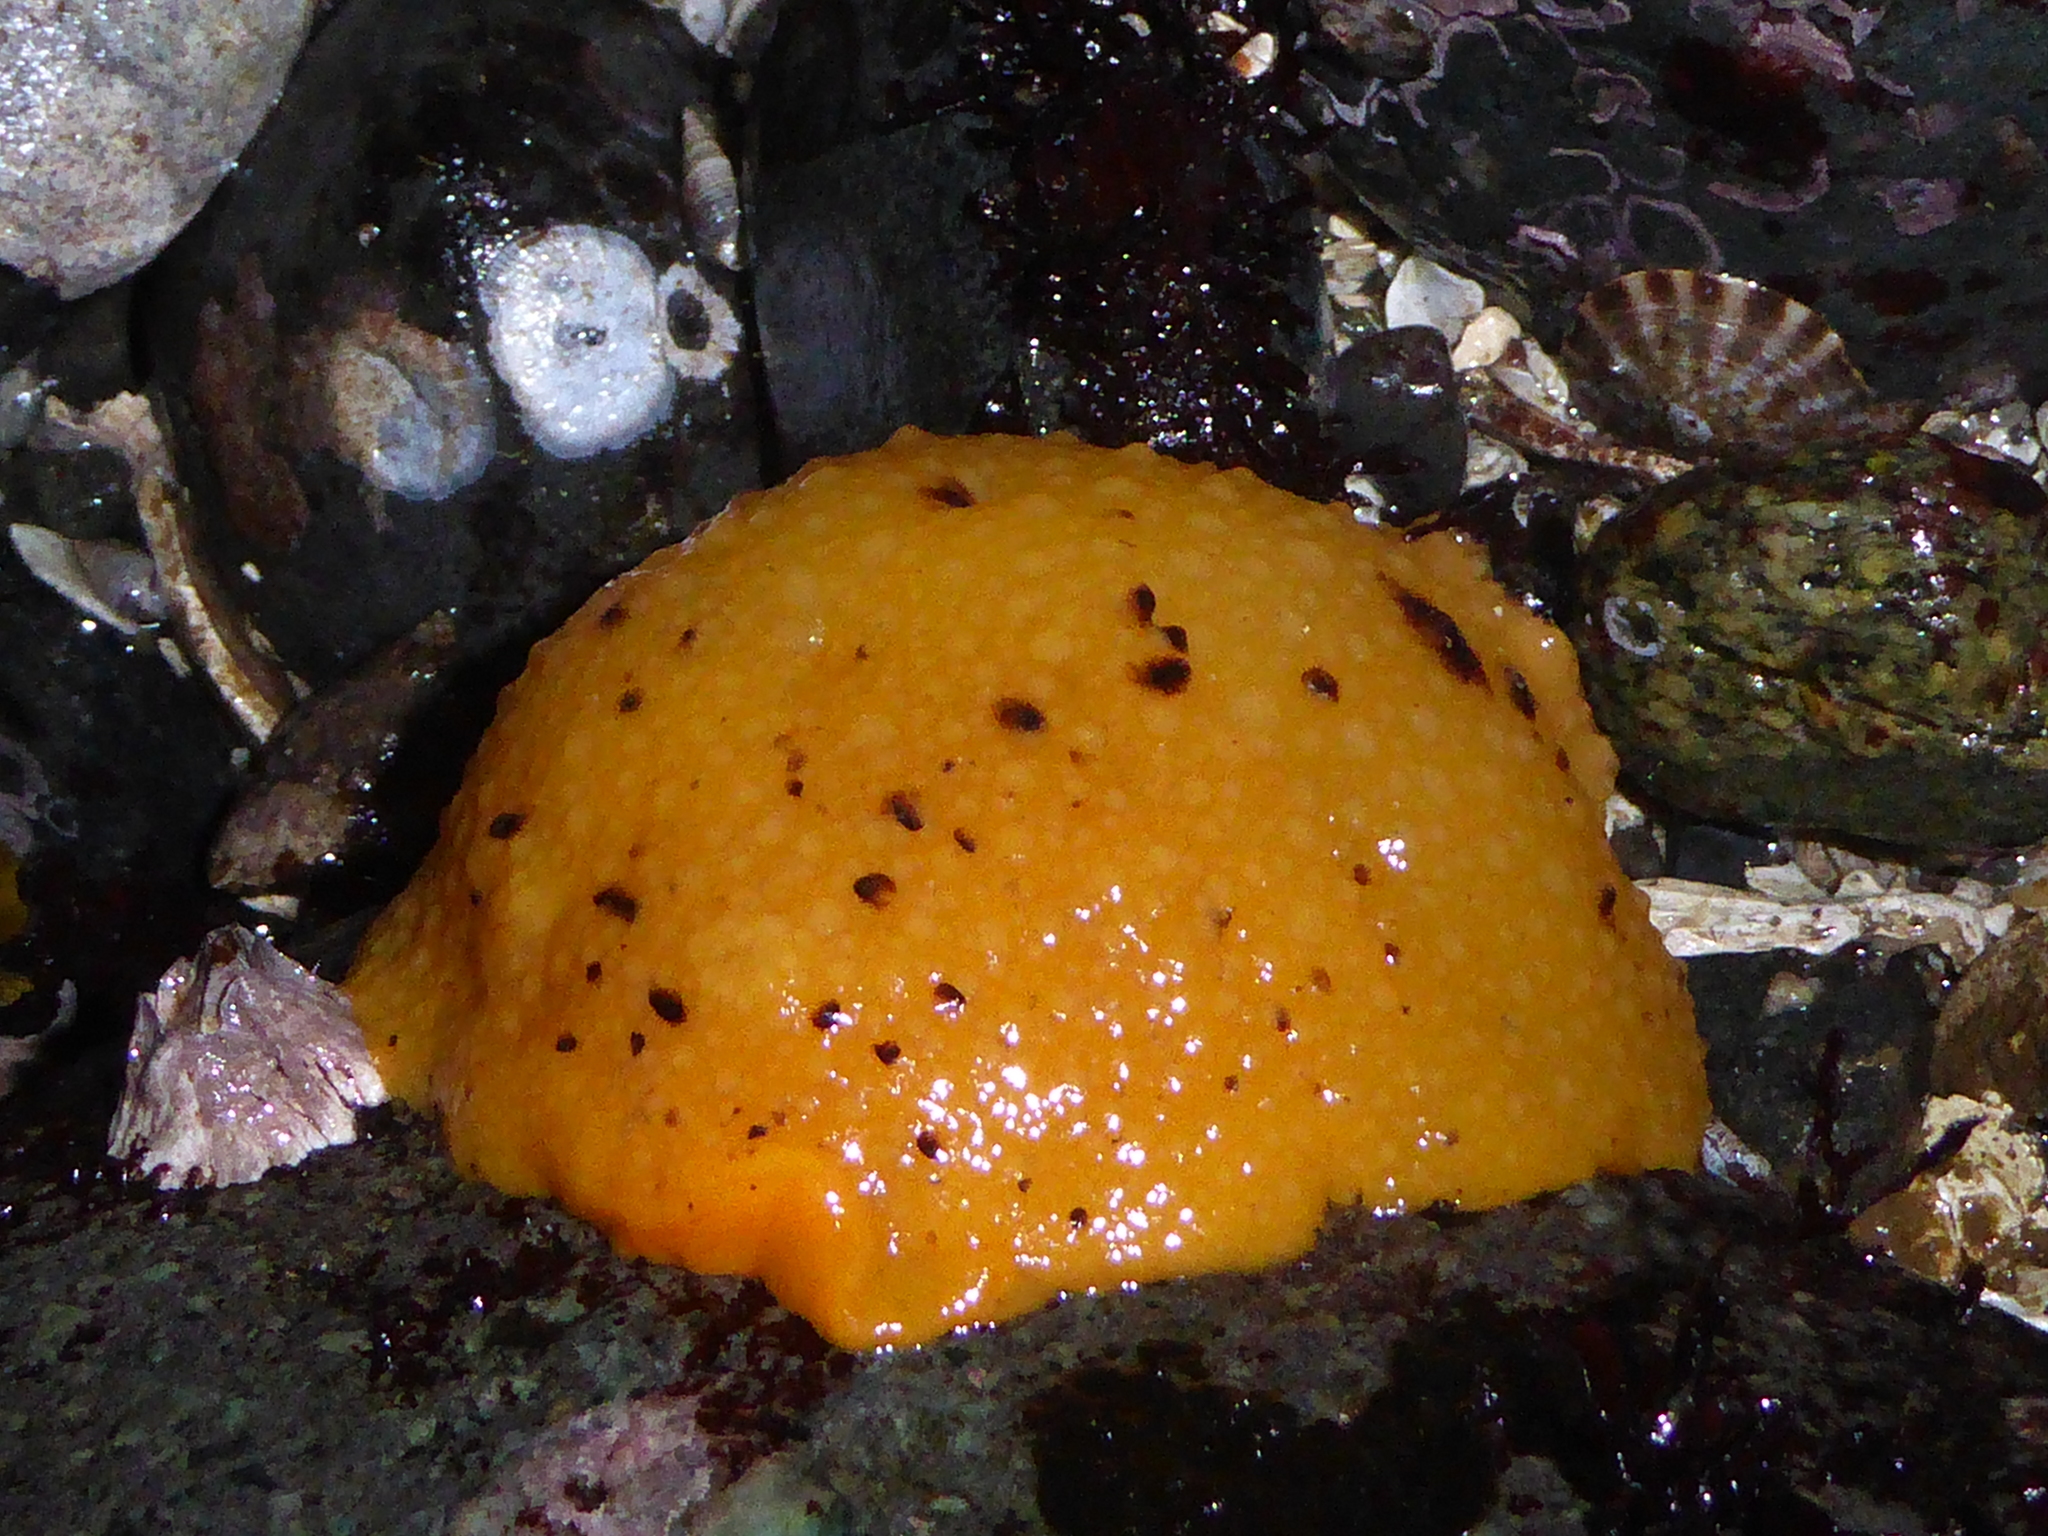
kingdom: Animalia
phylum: Mollusca
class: Gastropoda
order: Nudibranchia
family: Dorididae
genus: Doris
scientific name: Doris montereyensis
